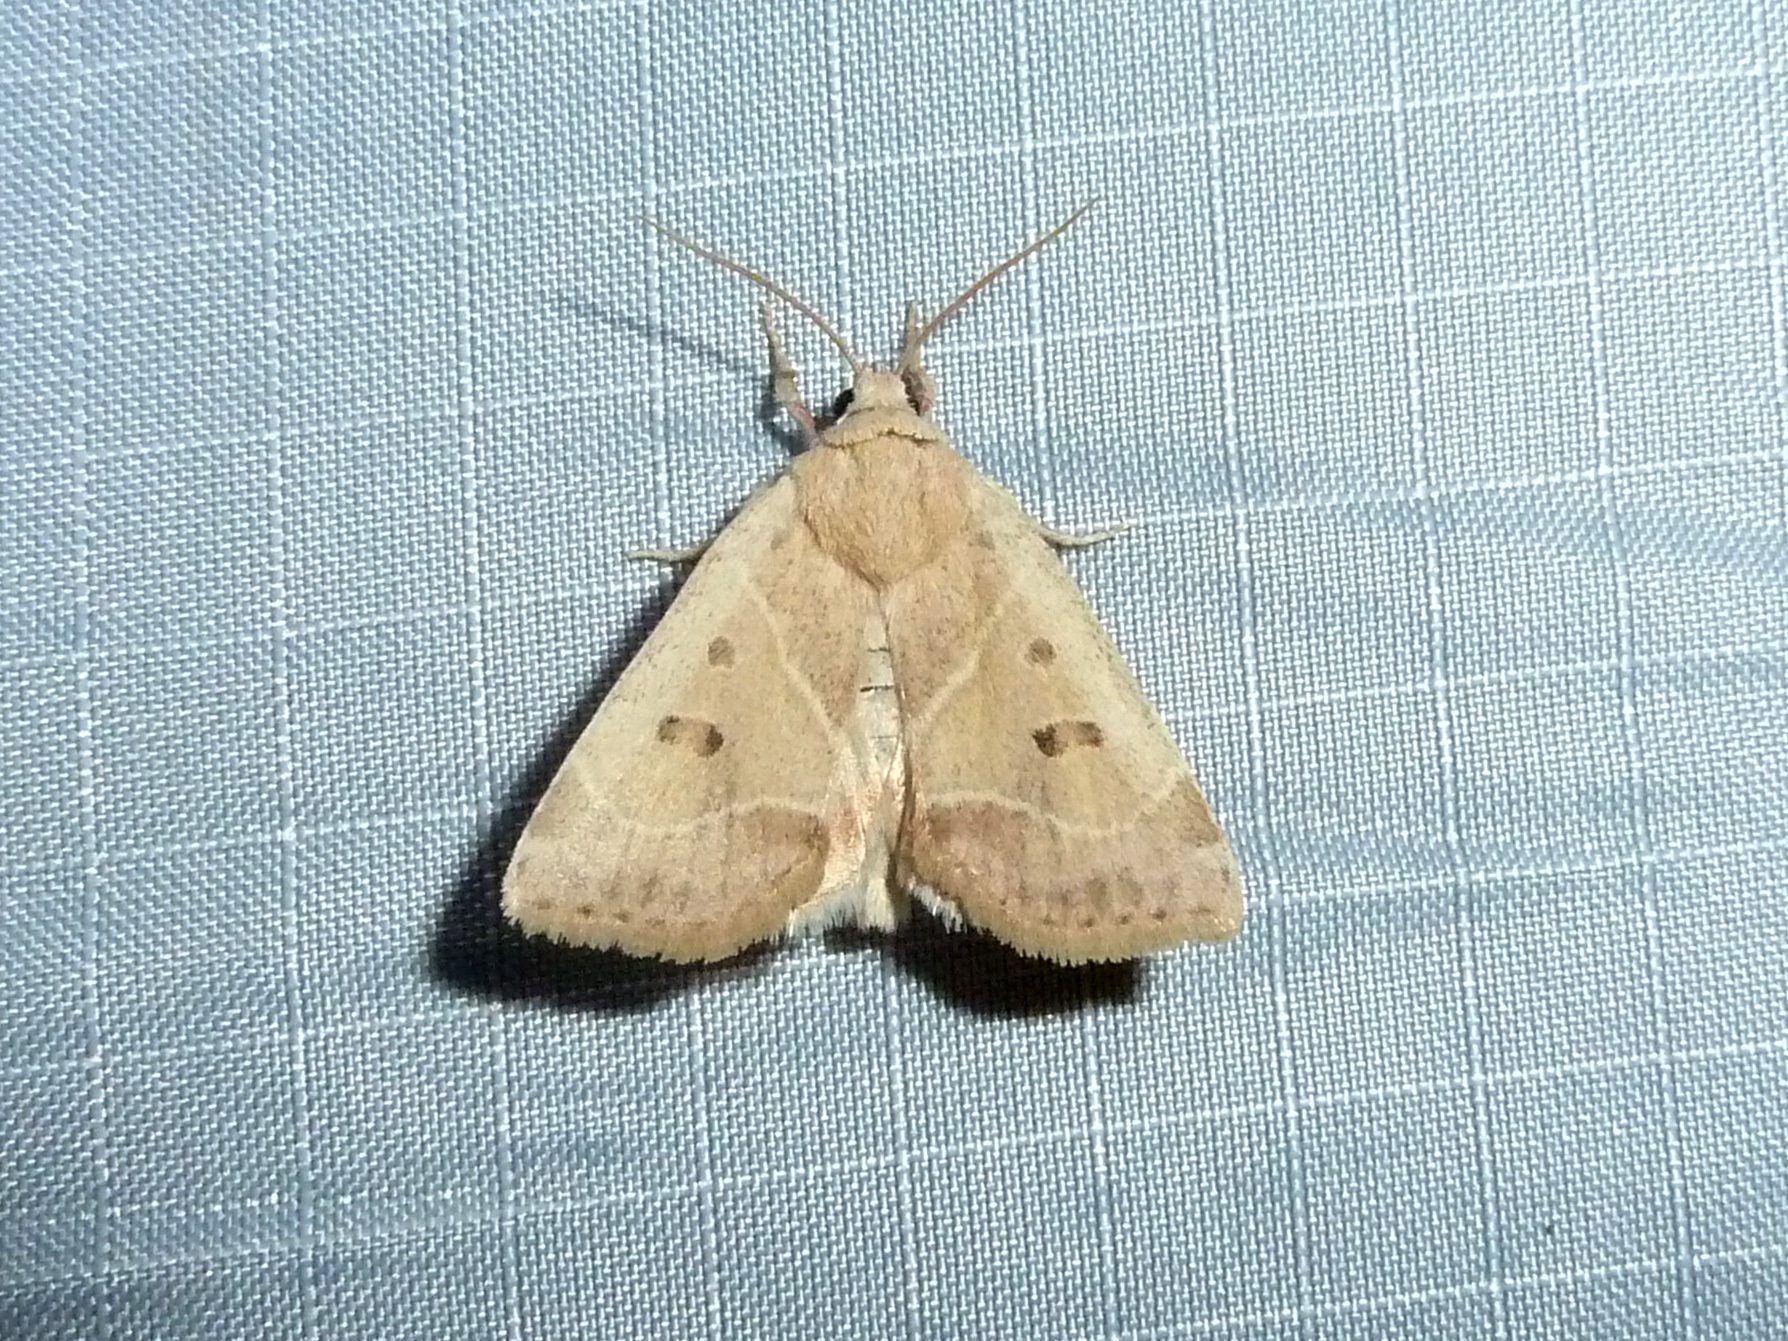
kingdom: Animalia
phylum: Arthropoda
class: Insecta
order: Lepidoptera
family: Noctuidae
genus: Cosmia
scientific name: Cosmia calami
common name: American dun-bar moth
